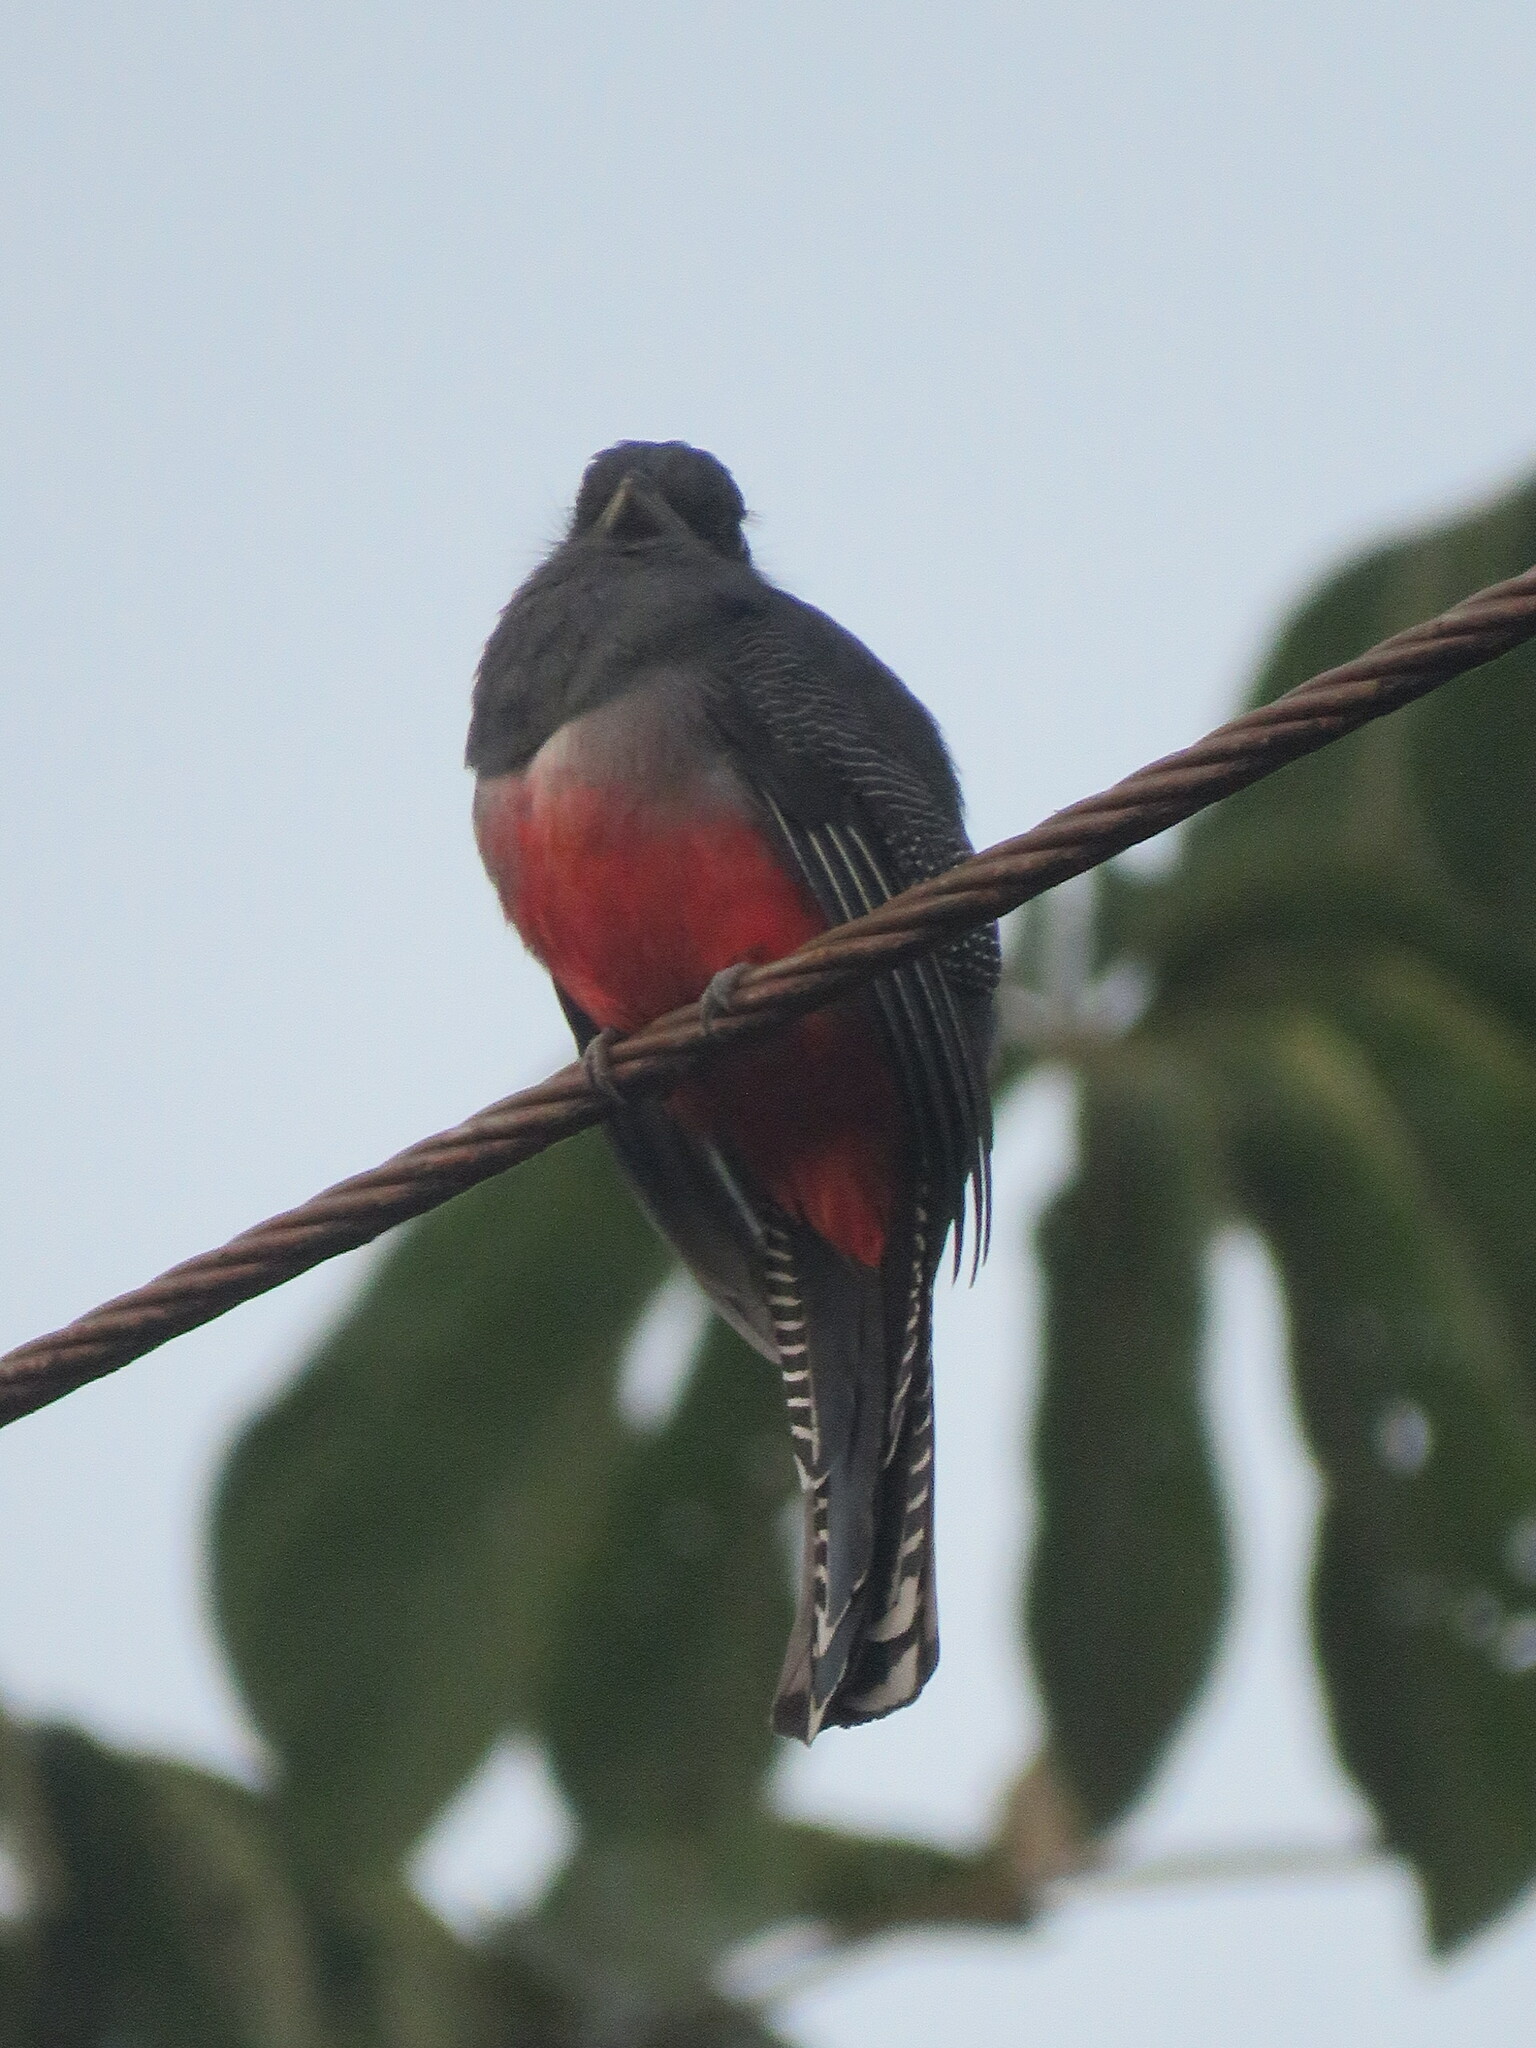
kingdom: Animalia
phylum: Chordata
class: Aves
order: Trogoniformes
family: Trogonidae
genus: Trogon
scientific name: Trogon curucui
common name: Blue-crowned trogon
